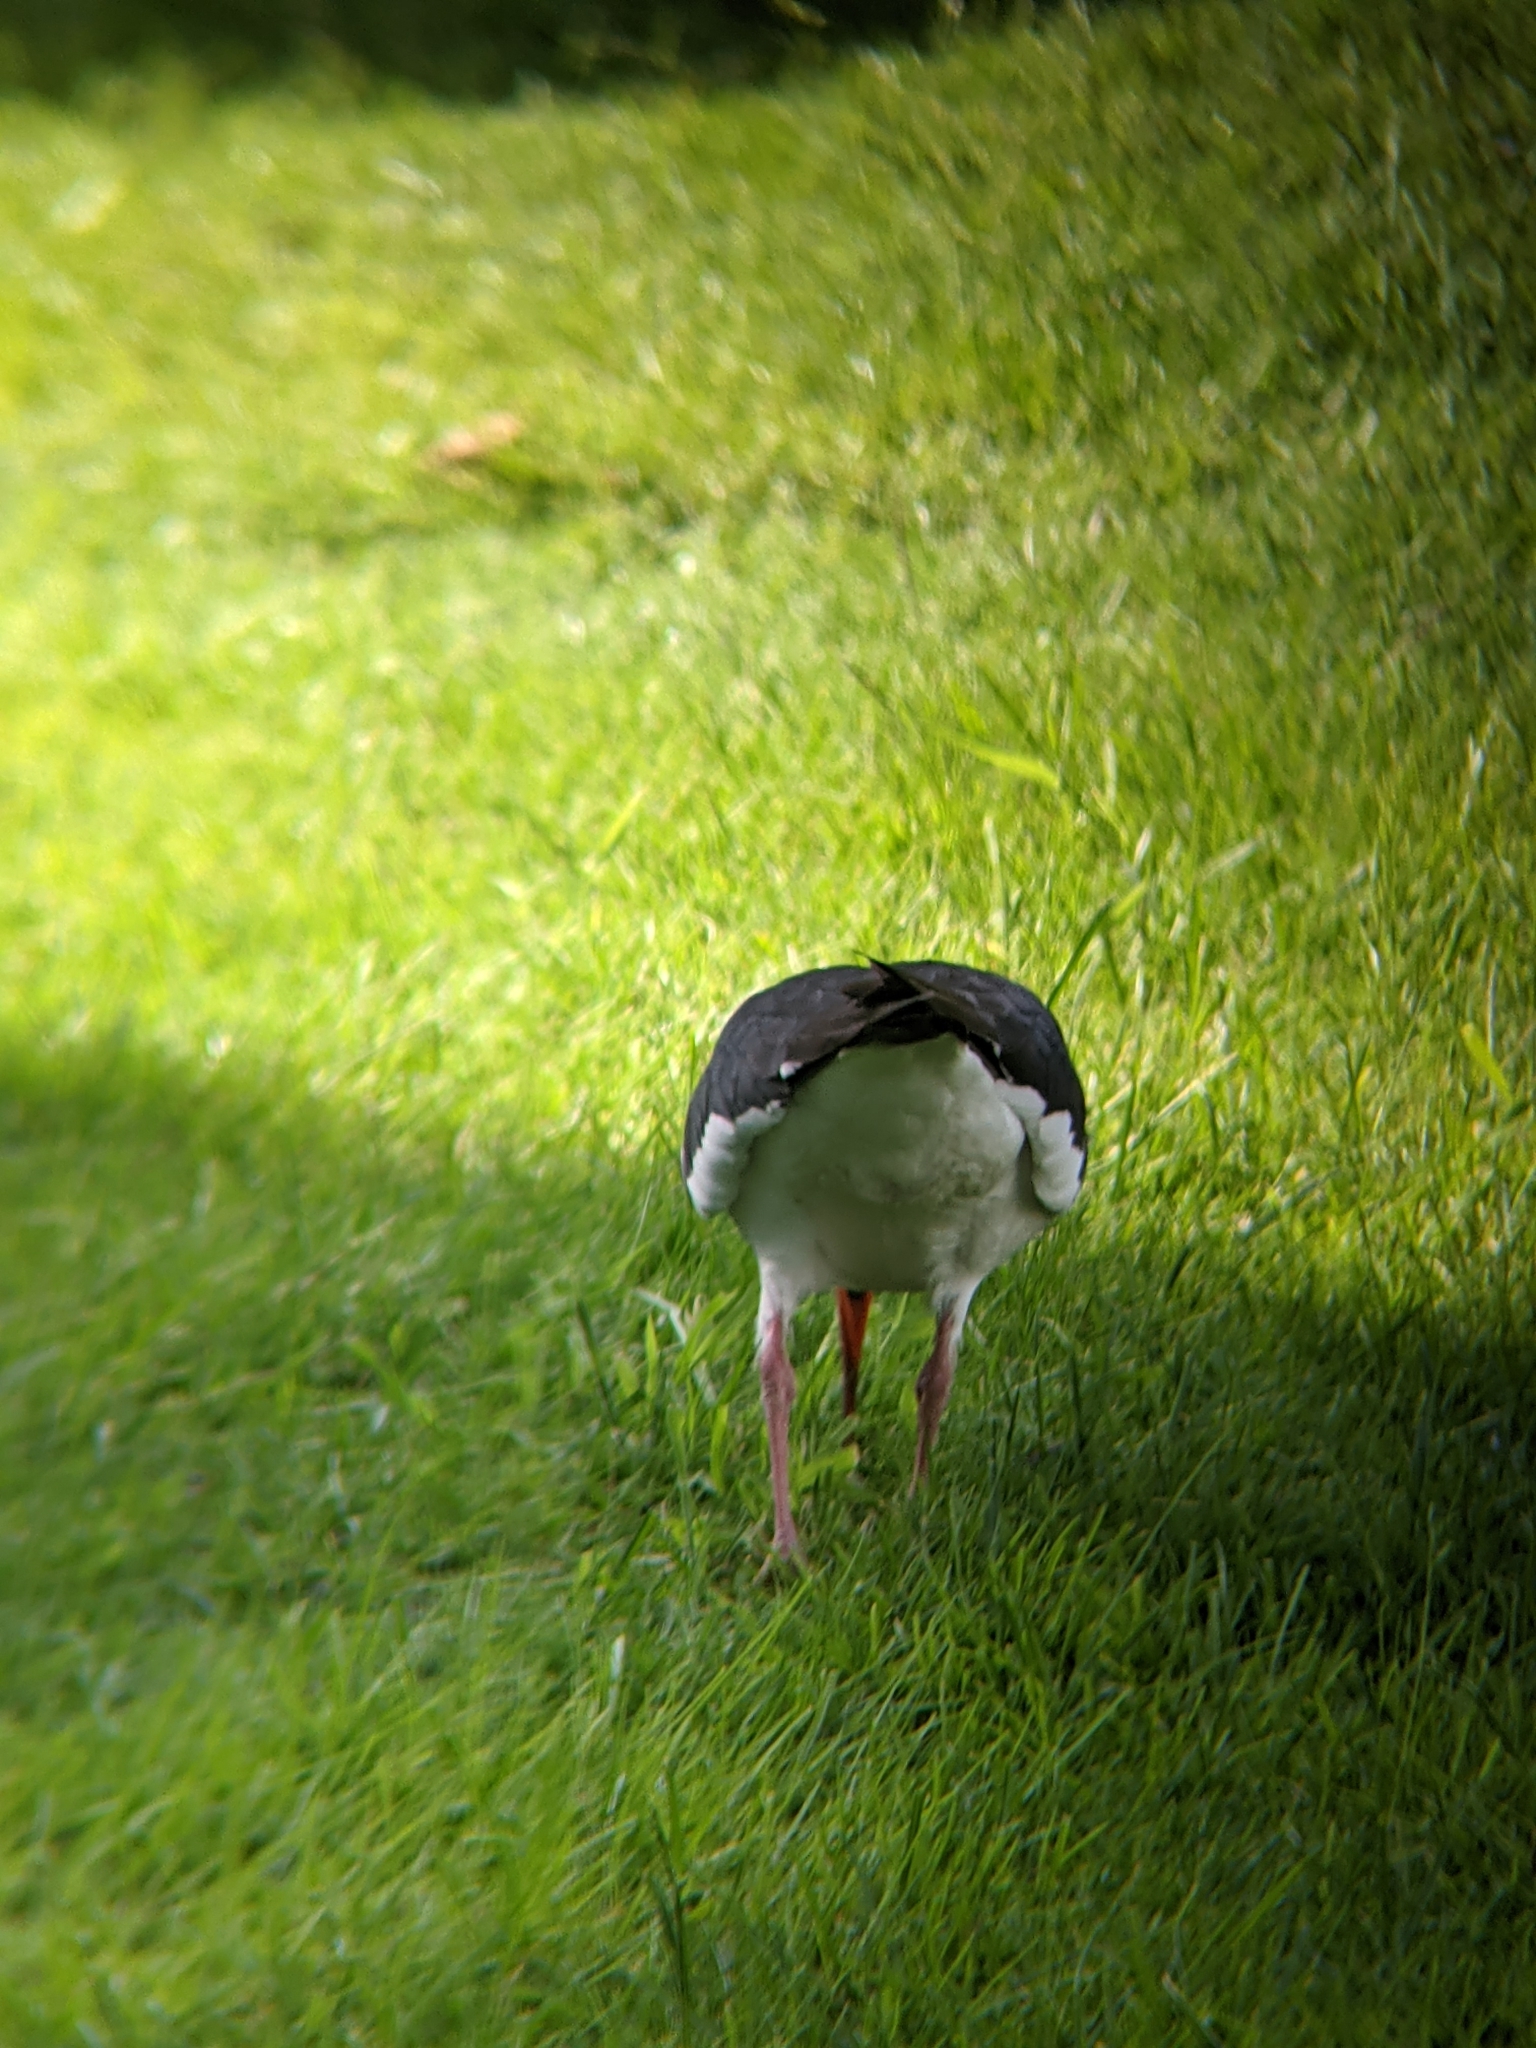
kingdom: Animalia
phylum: Chordata
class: Aves
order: Charadriiformes
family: Haematopodidae
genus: Haematopus
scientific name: Haematopus ostralegus
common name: Eurasian oystercatcher
